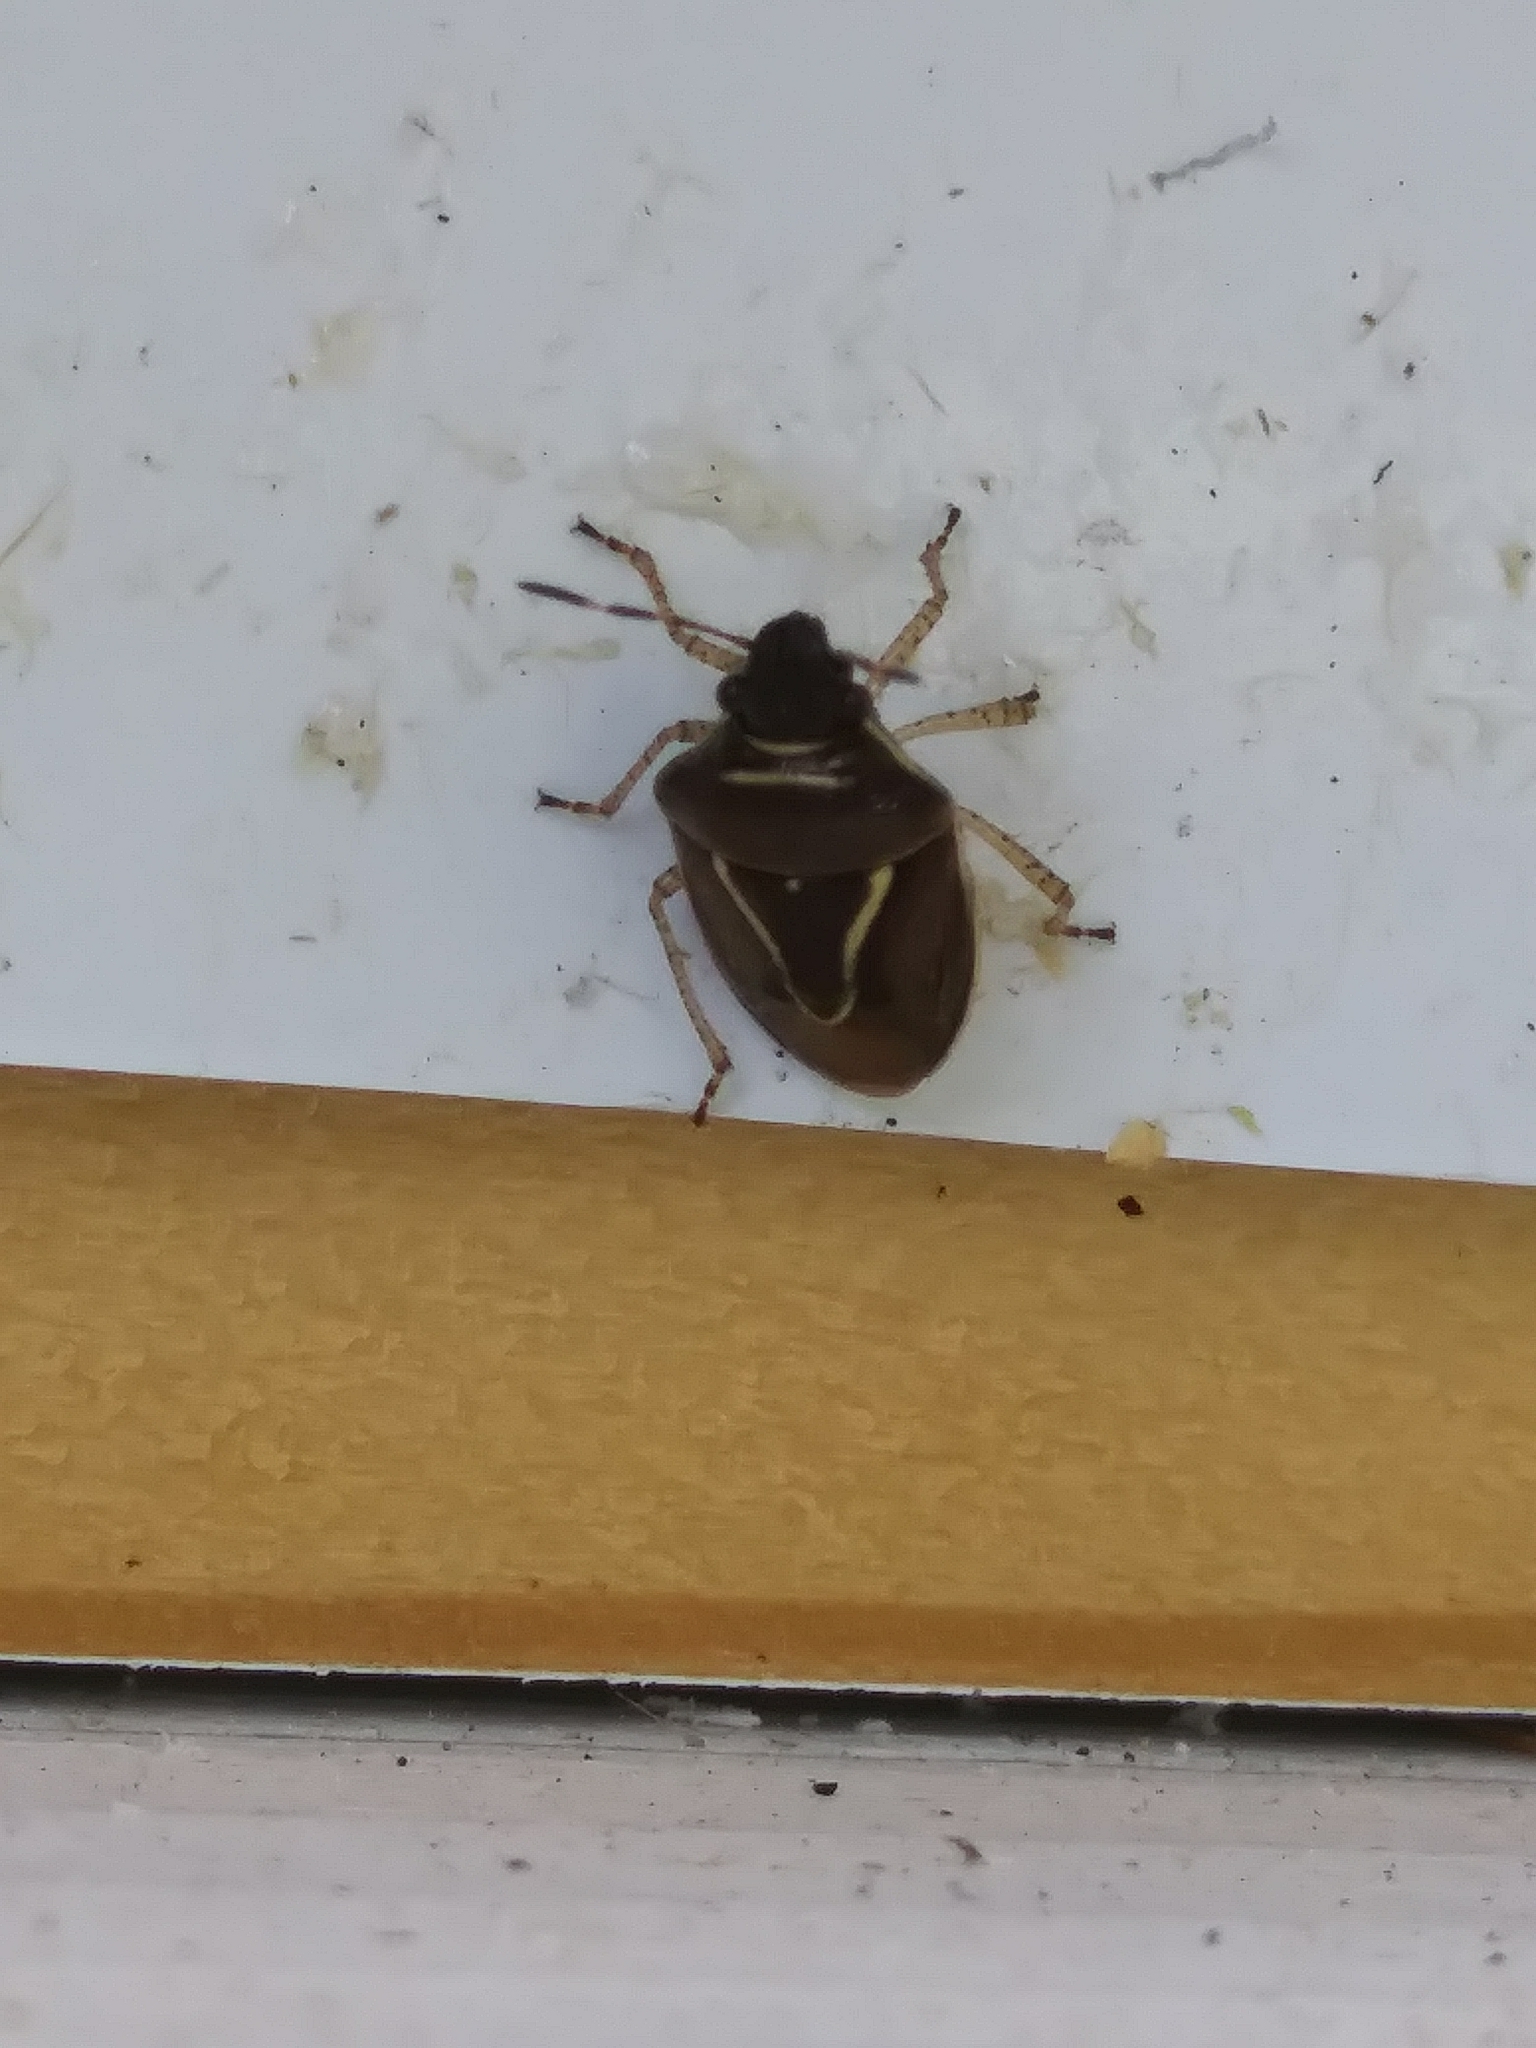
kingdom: Animalia
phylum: Arthropoda
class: Insecta
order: Hemiptera
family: Pentatomidae
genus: Mormidea
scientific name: Mormidea lugens
